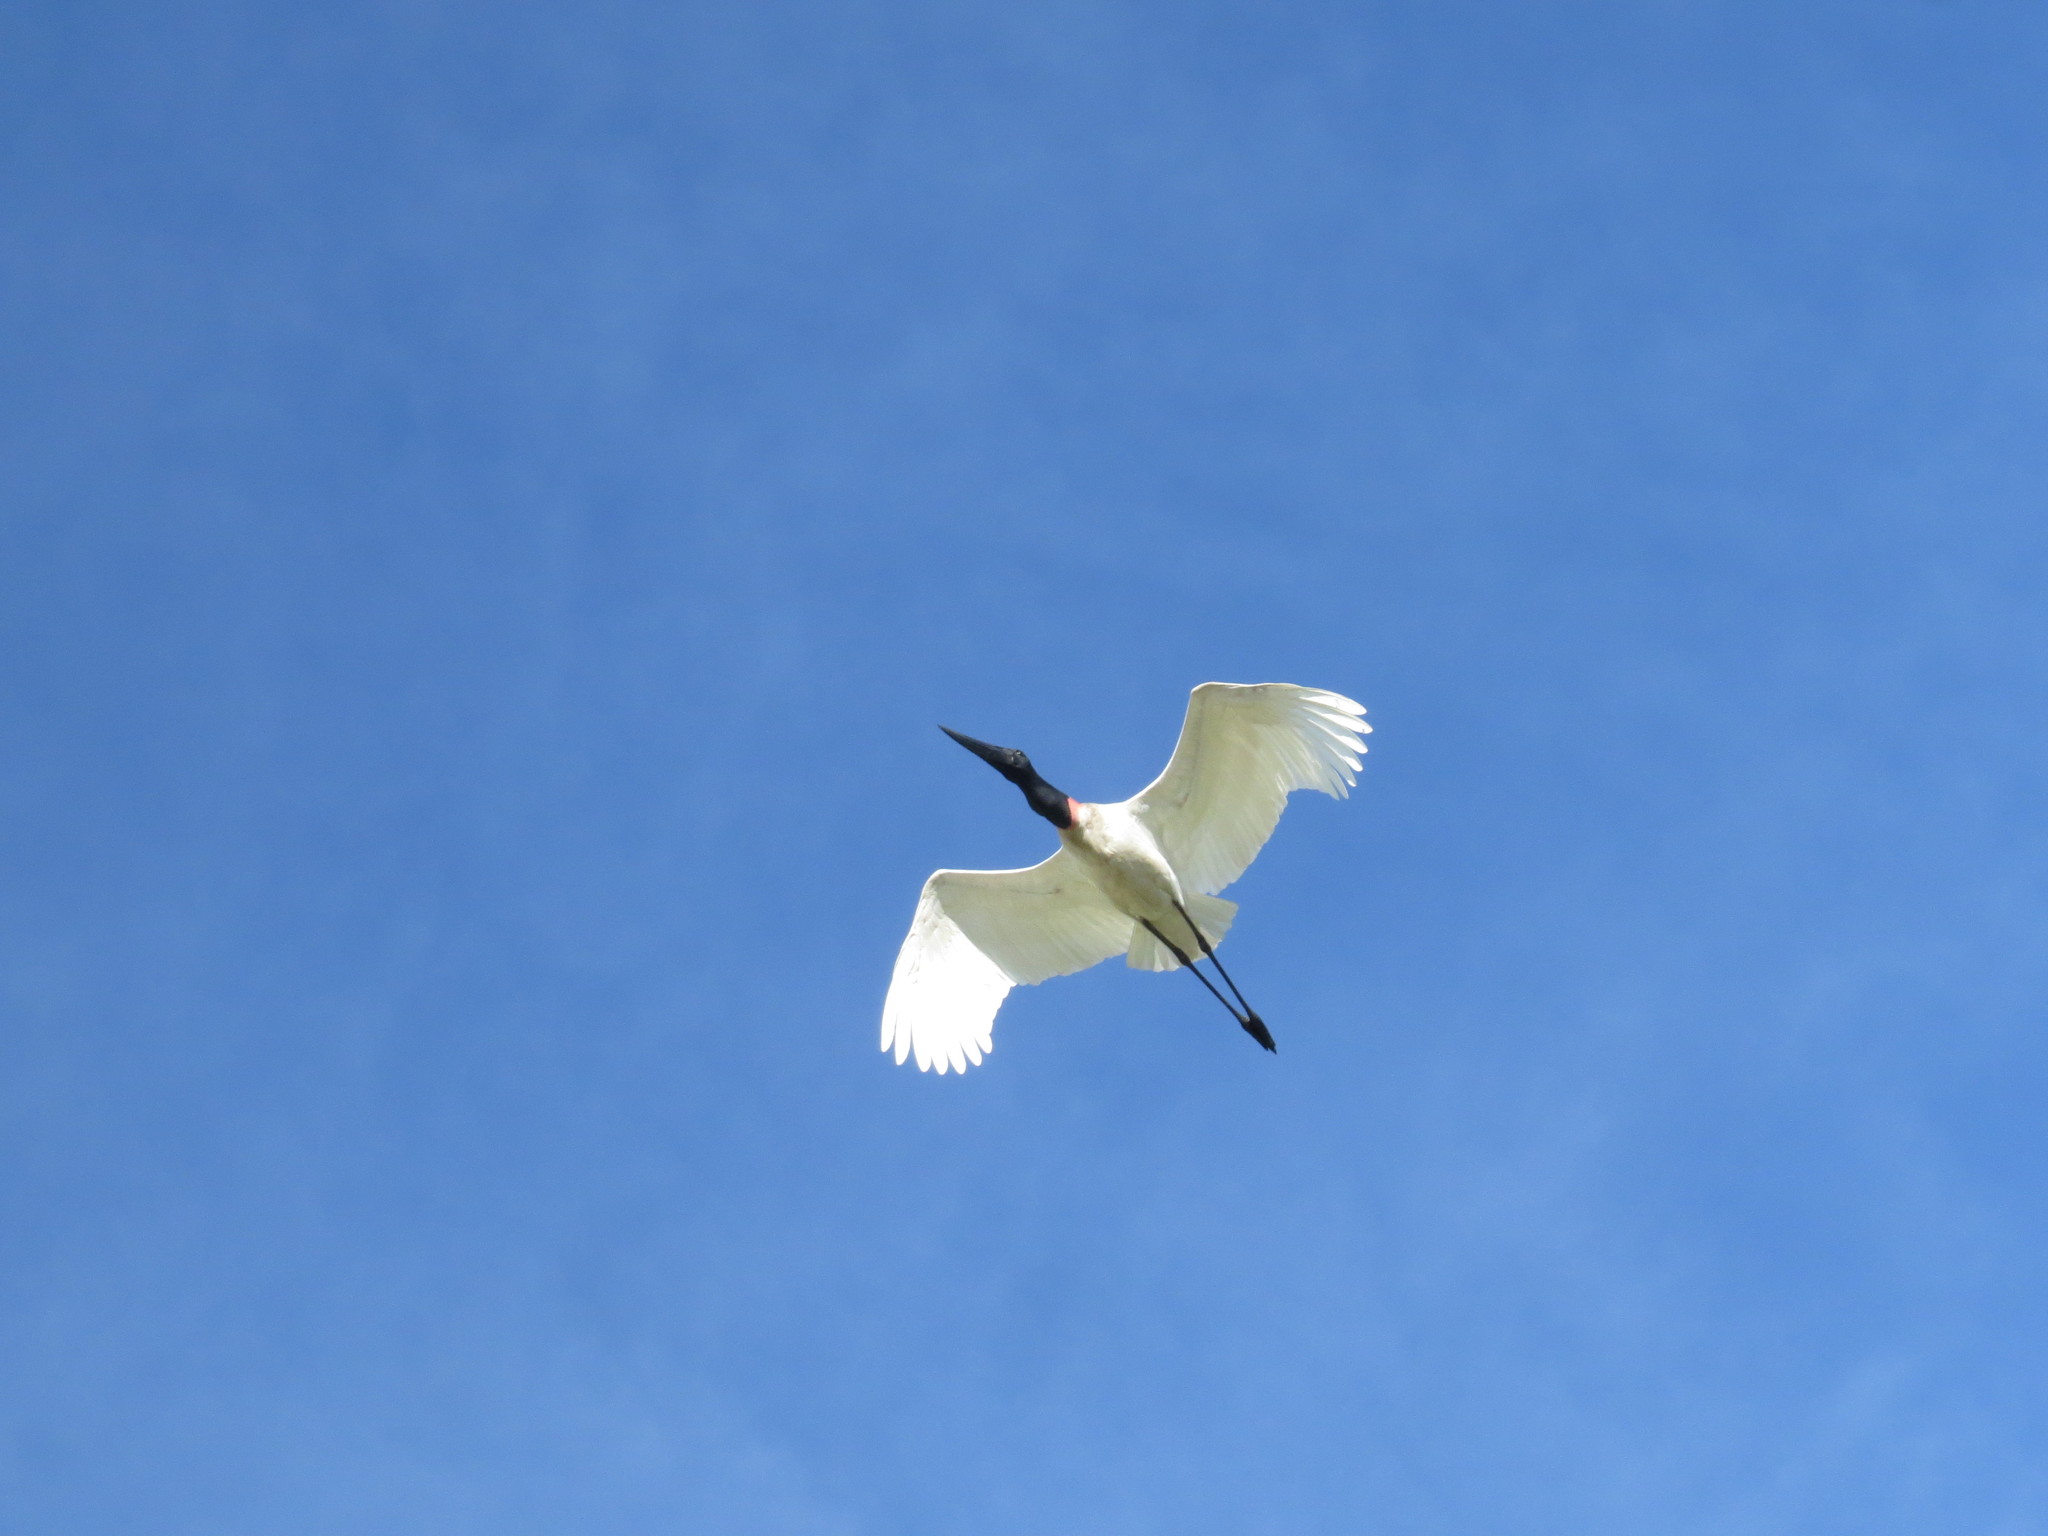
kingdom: Animalia
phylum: Chordata
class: Aves
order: Ciconiiformes
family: Ciconiidae
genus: Jabiru
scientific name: Jabiru mycteria
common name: Jabiru
